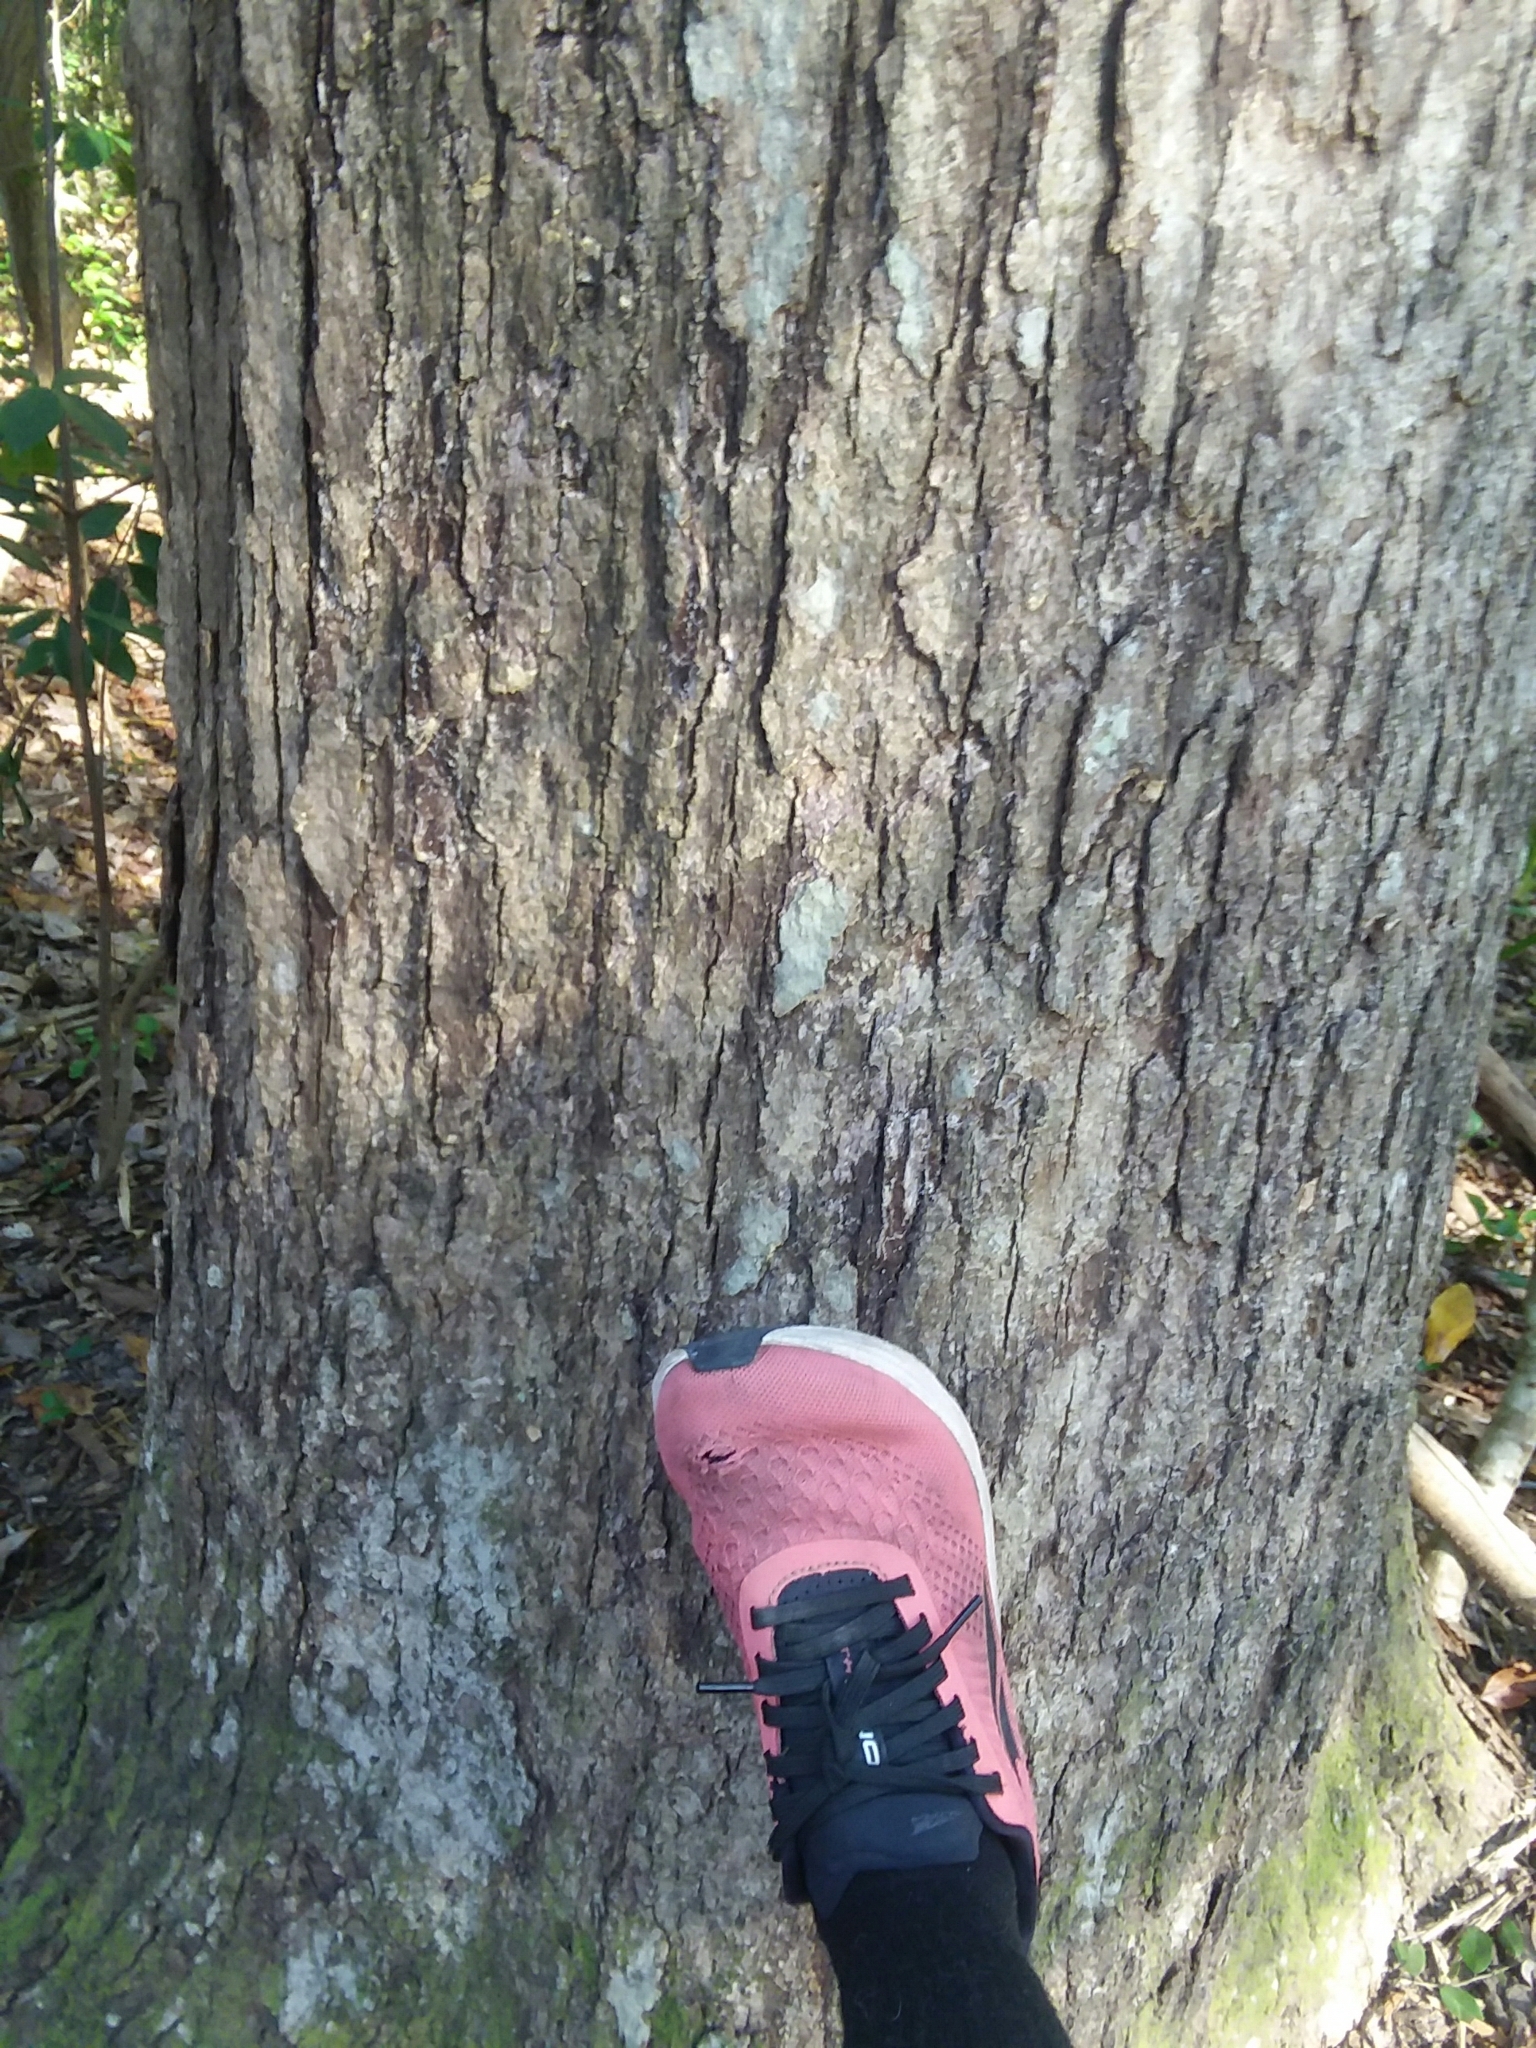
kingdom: Plantae
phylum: Tracheophyta
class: Magnoliopsida
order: Fagales
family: Fagaceae
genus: Quercus
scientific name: Quercus alba
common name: White oak
